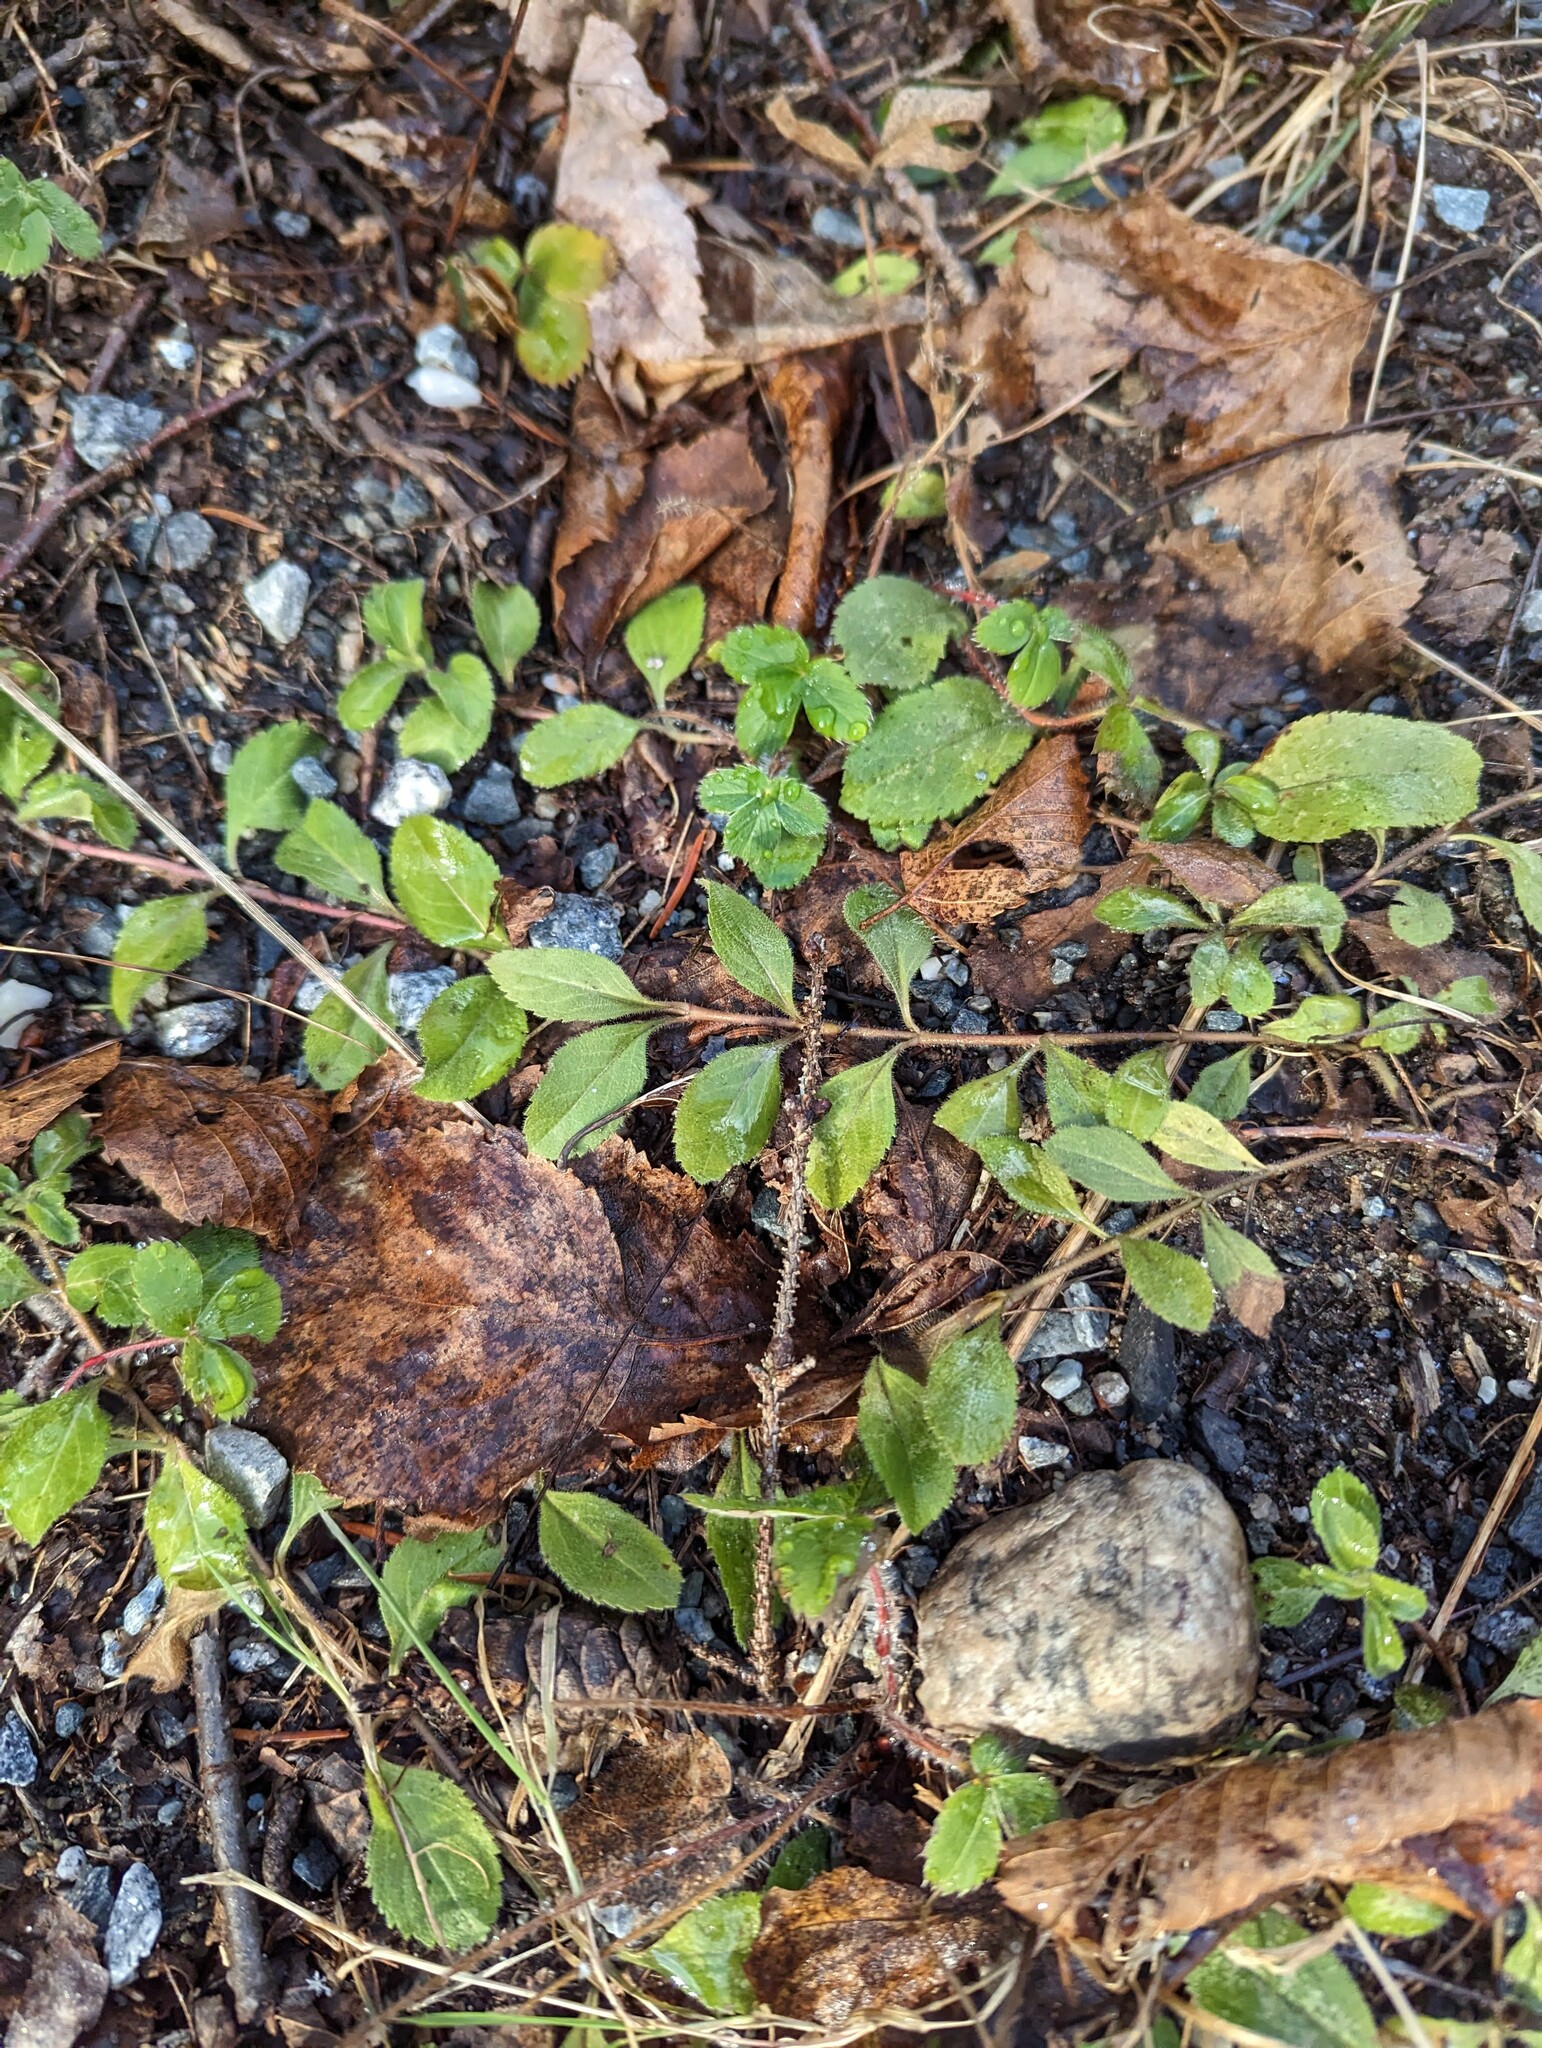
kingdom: Plantae
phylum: Tracheophyta
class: Magnoliopsida
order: Lamiales
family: Plantaginaceae
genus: Veronica
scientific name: Veronica officinalis
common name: Common speedwell
